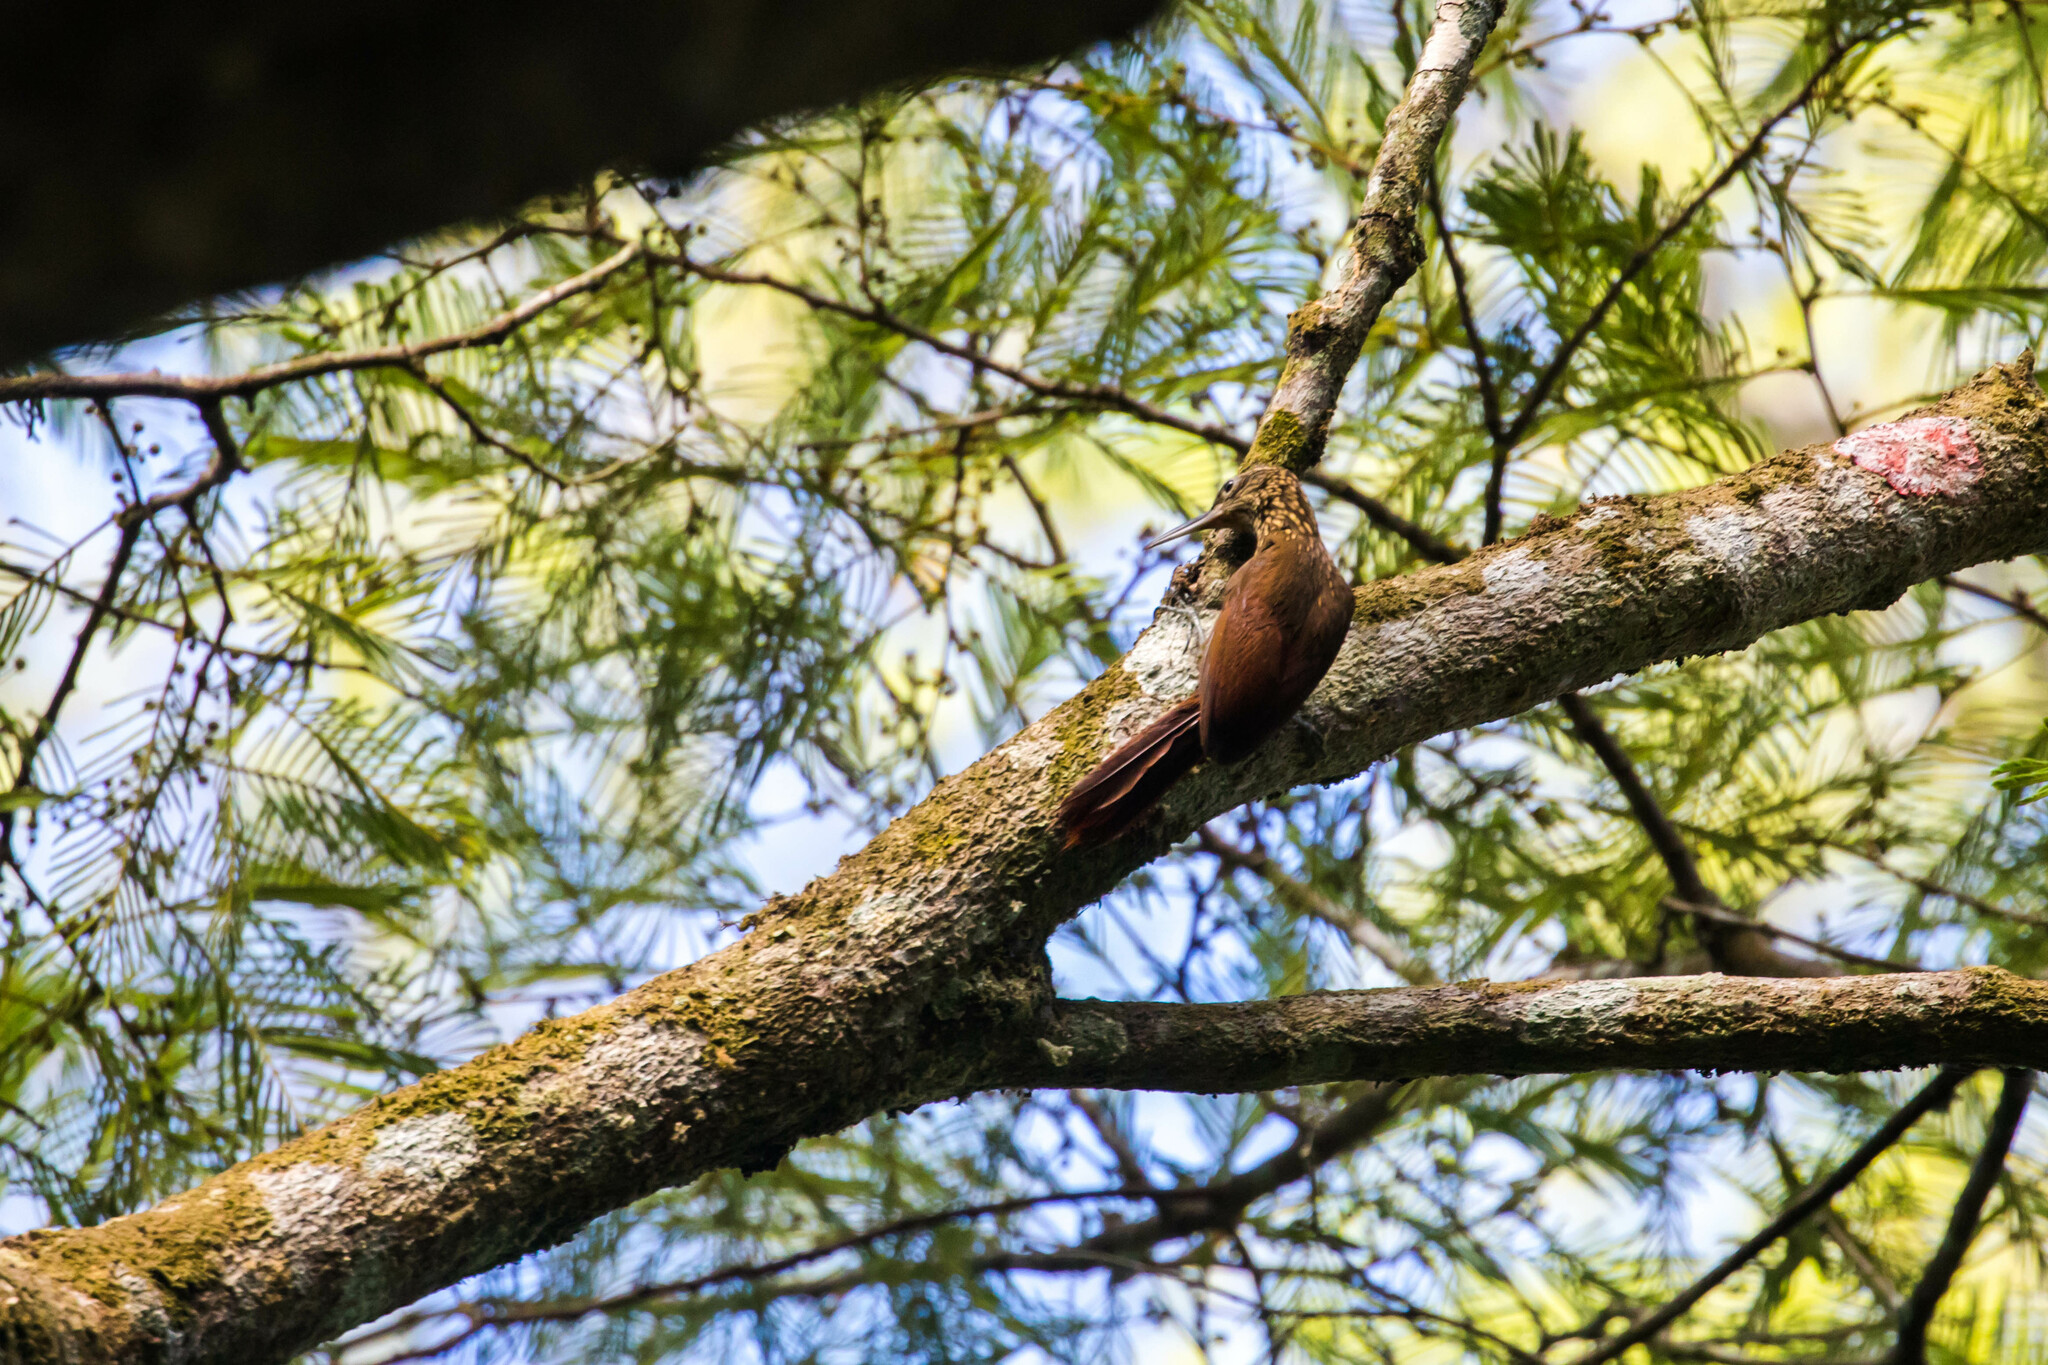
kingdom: Animalia
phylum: Chordata
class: Aves
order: Passeriformes
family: Furnariidae
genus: Xiphorhynchus
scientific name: Xiphorhynchus susurrans
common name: Cocoa woodcreeper
